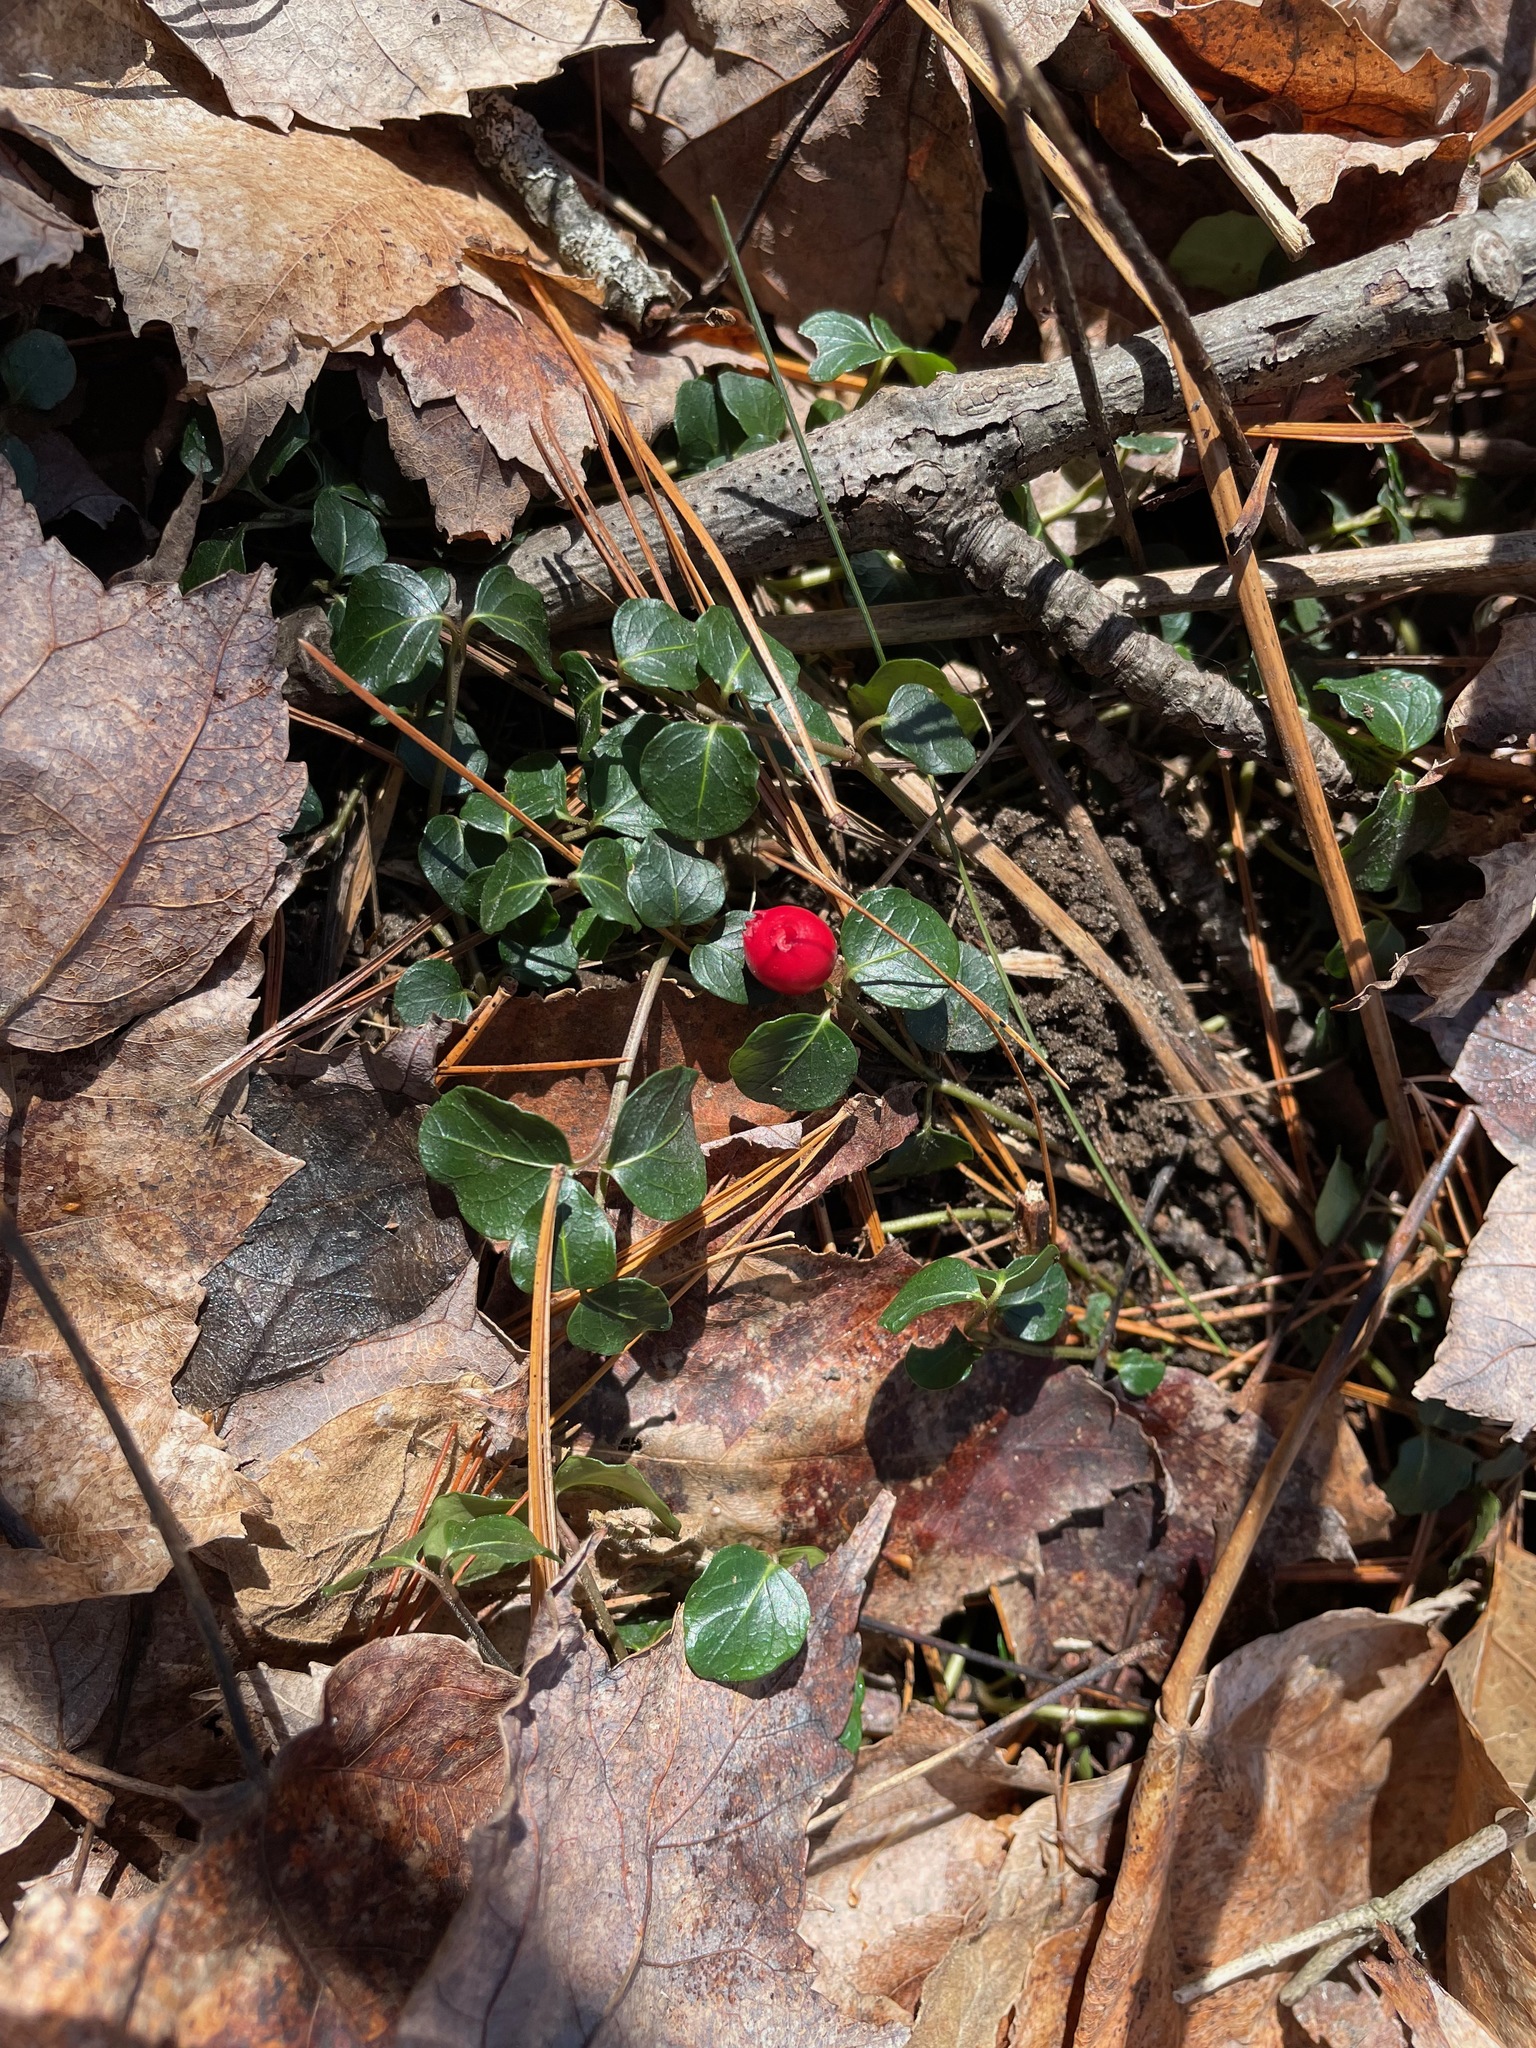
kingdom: Plantae
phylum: Tracheophyta
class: Magnoliopsida
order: Gentianales
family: Rubiaceae
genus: Mitchella
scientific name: Mitchella repens
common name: Partridge-berry
